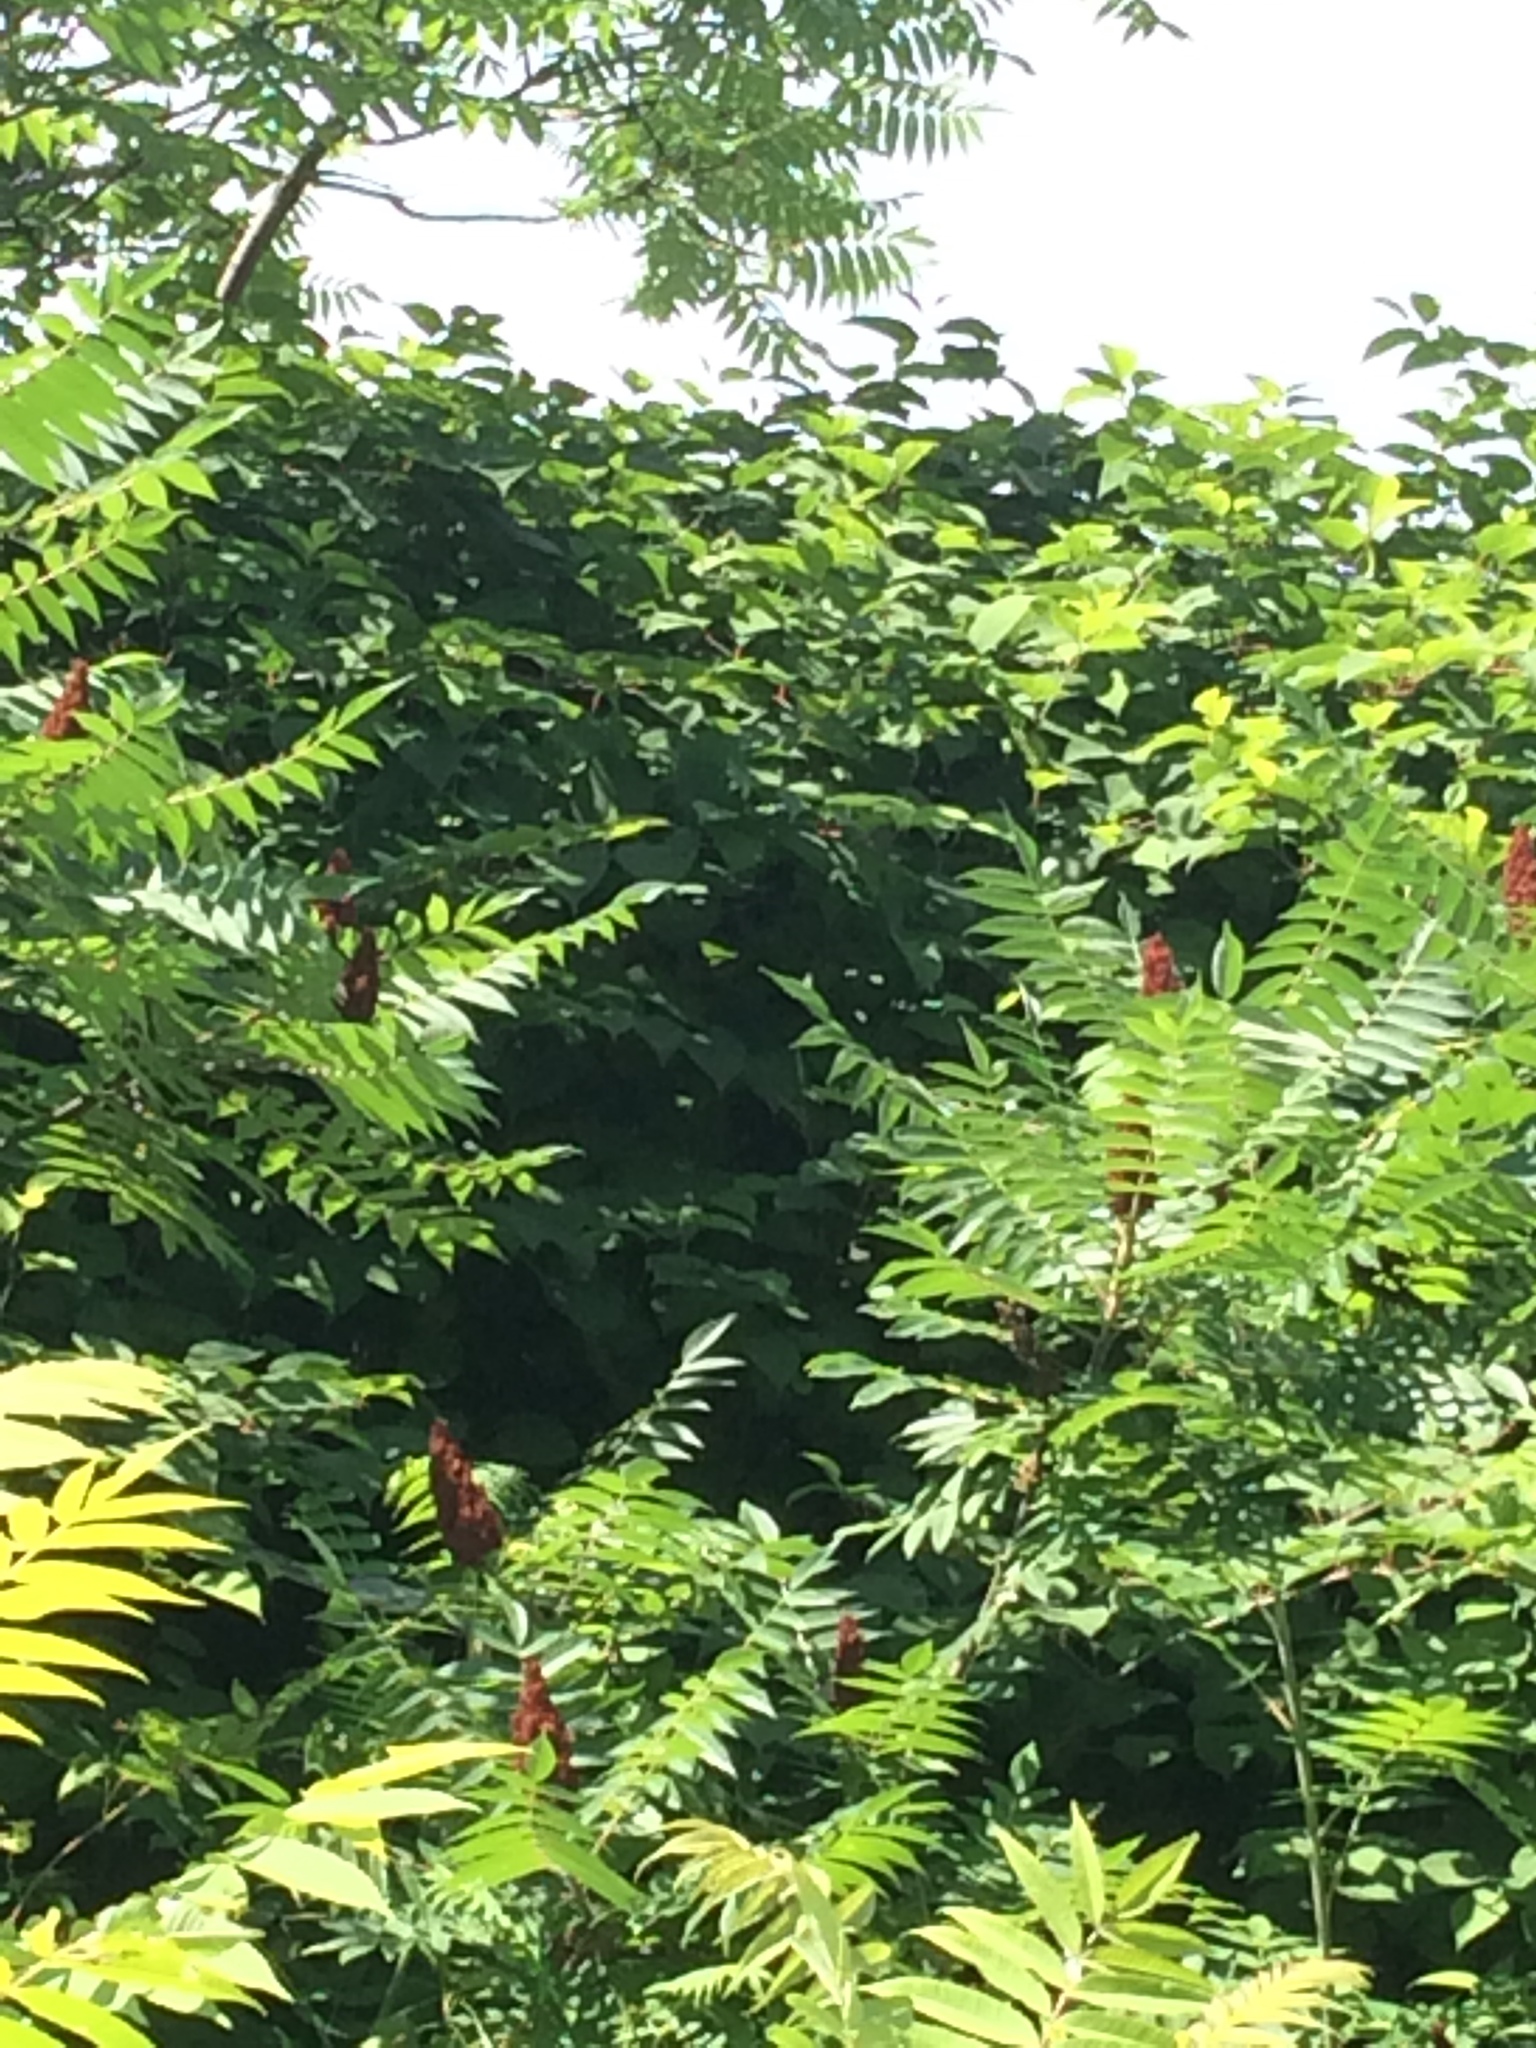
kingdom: Plantae
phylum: Tracheophyta
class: Magnoliopsida
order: Caryophyllales
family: Polygonaceae
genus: Reynoutria
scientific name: Reynoutria japonica
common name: Japanese knotweed
